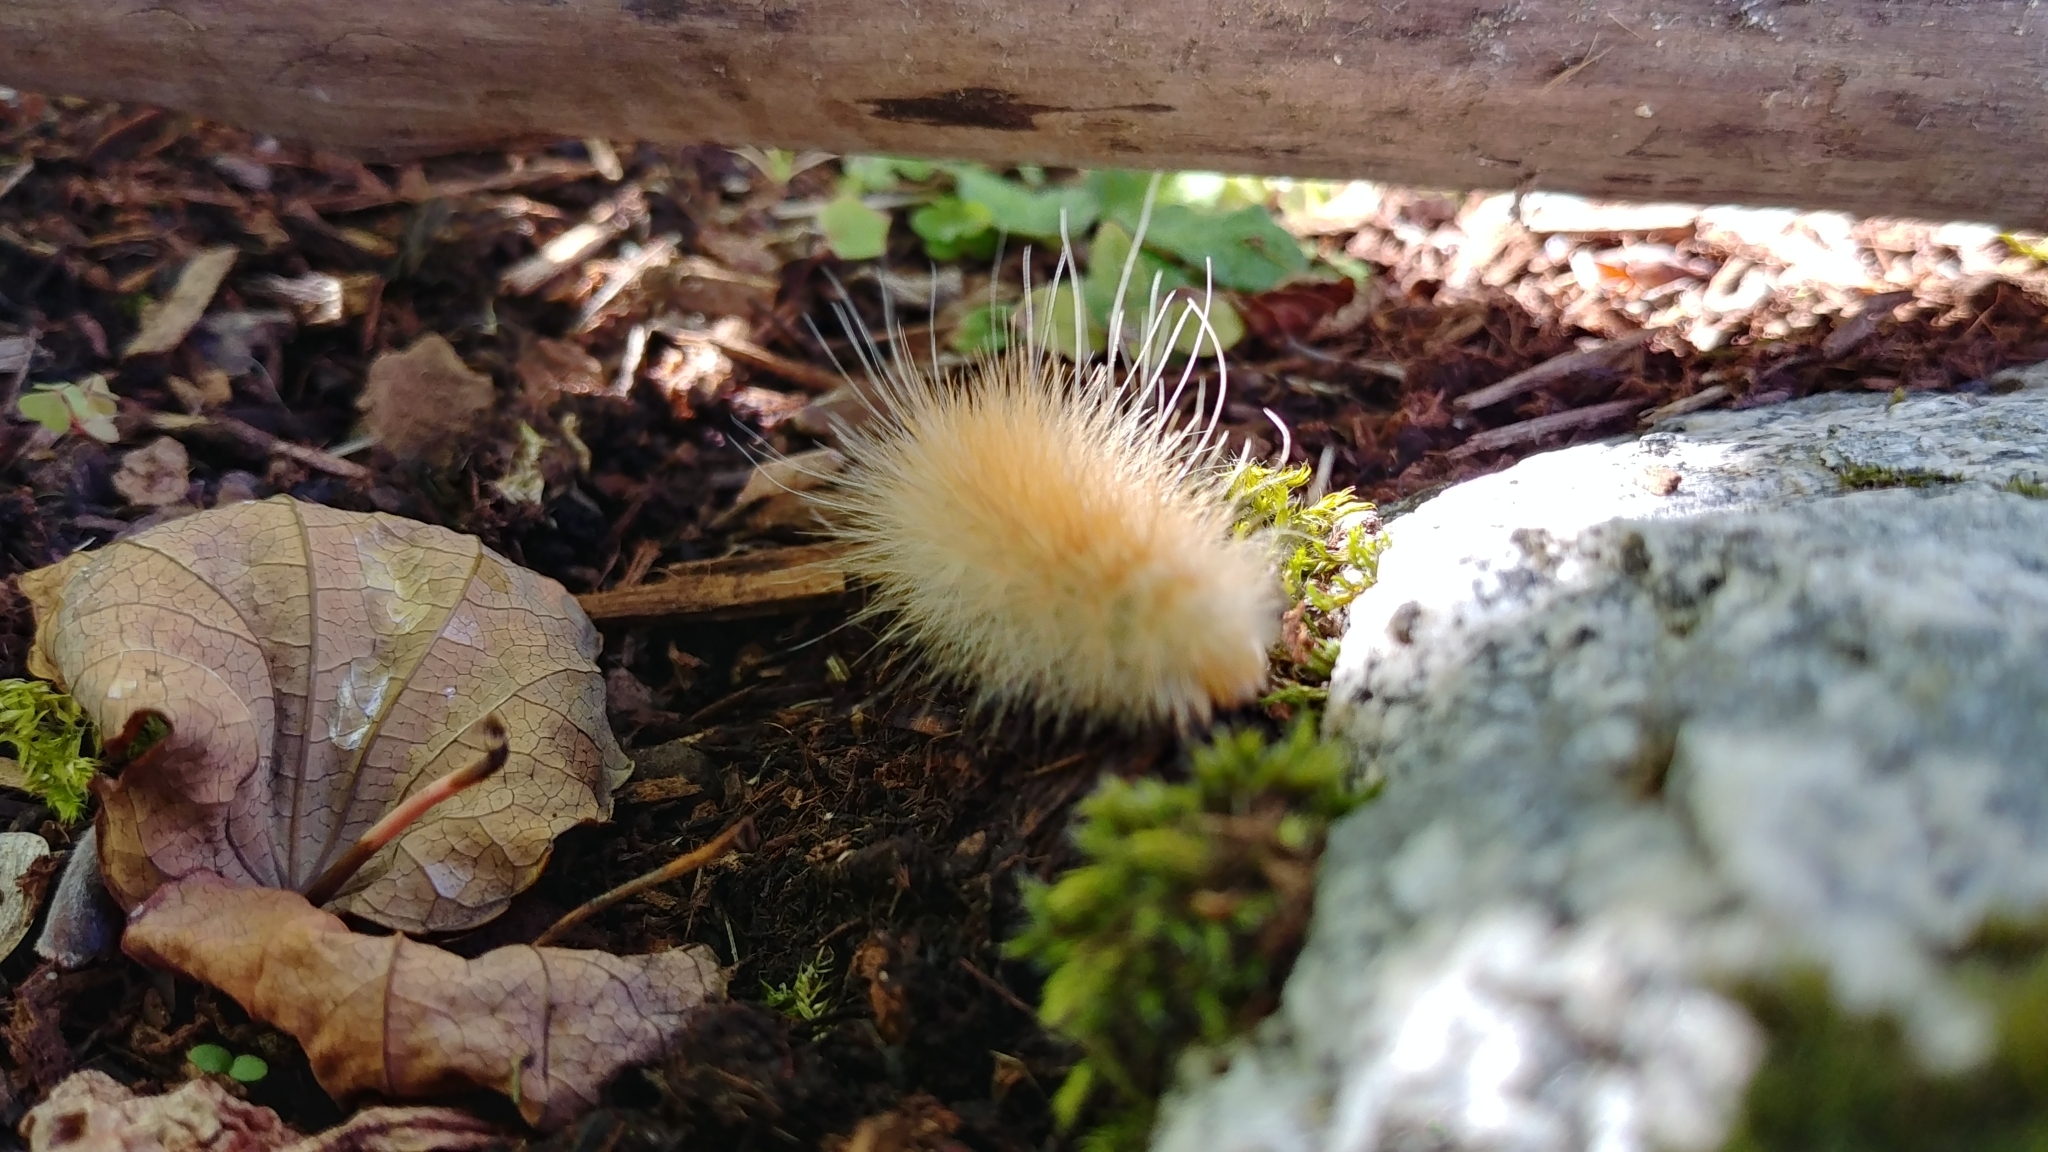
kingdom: Animalia
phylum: Arthropoda
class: Insecta
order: Lepidoptera
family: Erebidae
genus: Spilosoma
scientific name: Spilosoma virginica
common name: Virginia tiger moth
